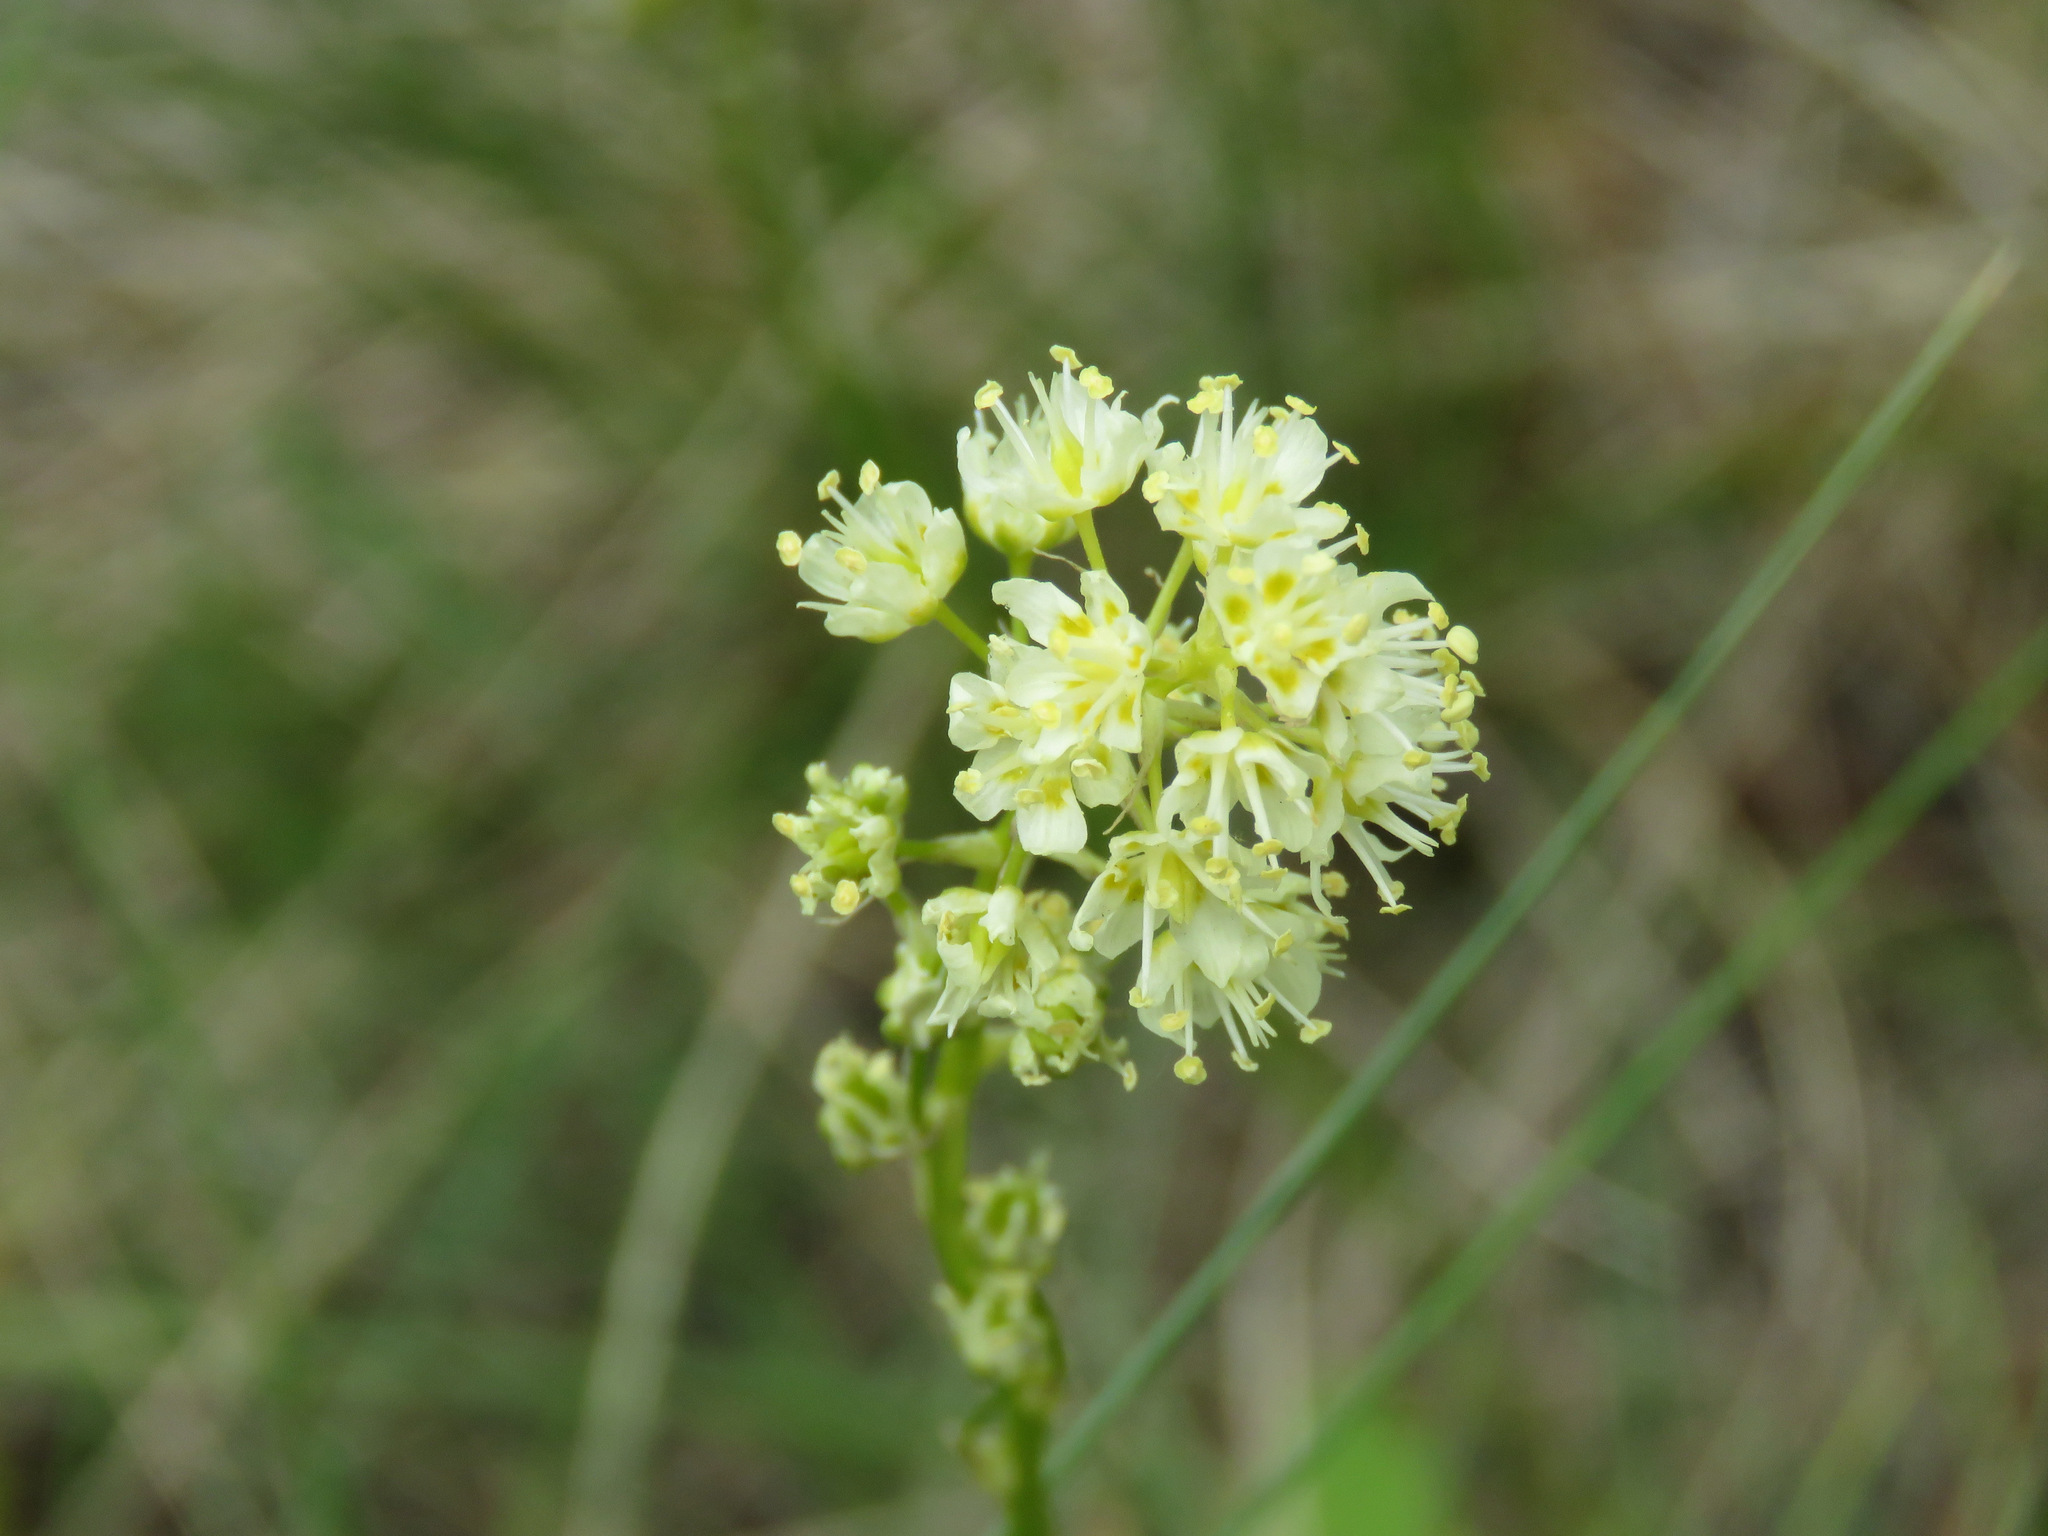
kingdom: Plantae
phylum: Tracheophyta
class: Liliopsida
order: Liliales
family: Melanthiaceae
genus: Toxicoscordion
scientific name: Toxicoscordion venenosum
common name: Meadow death camas
